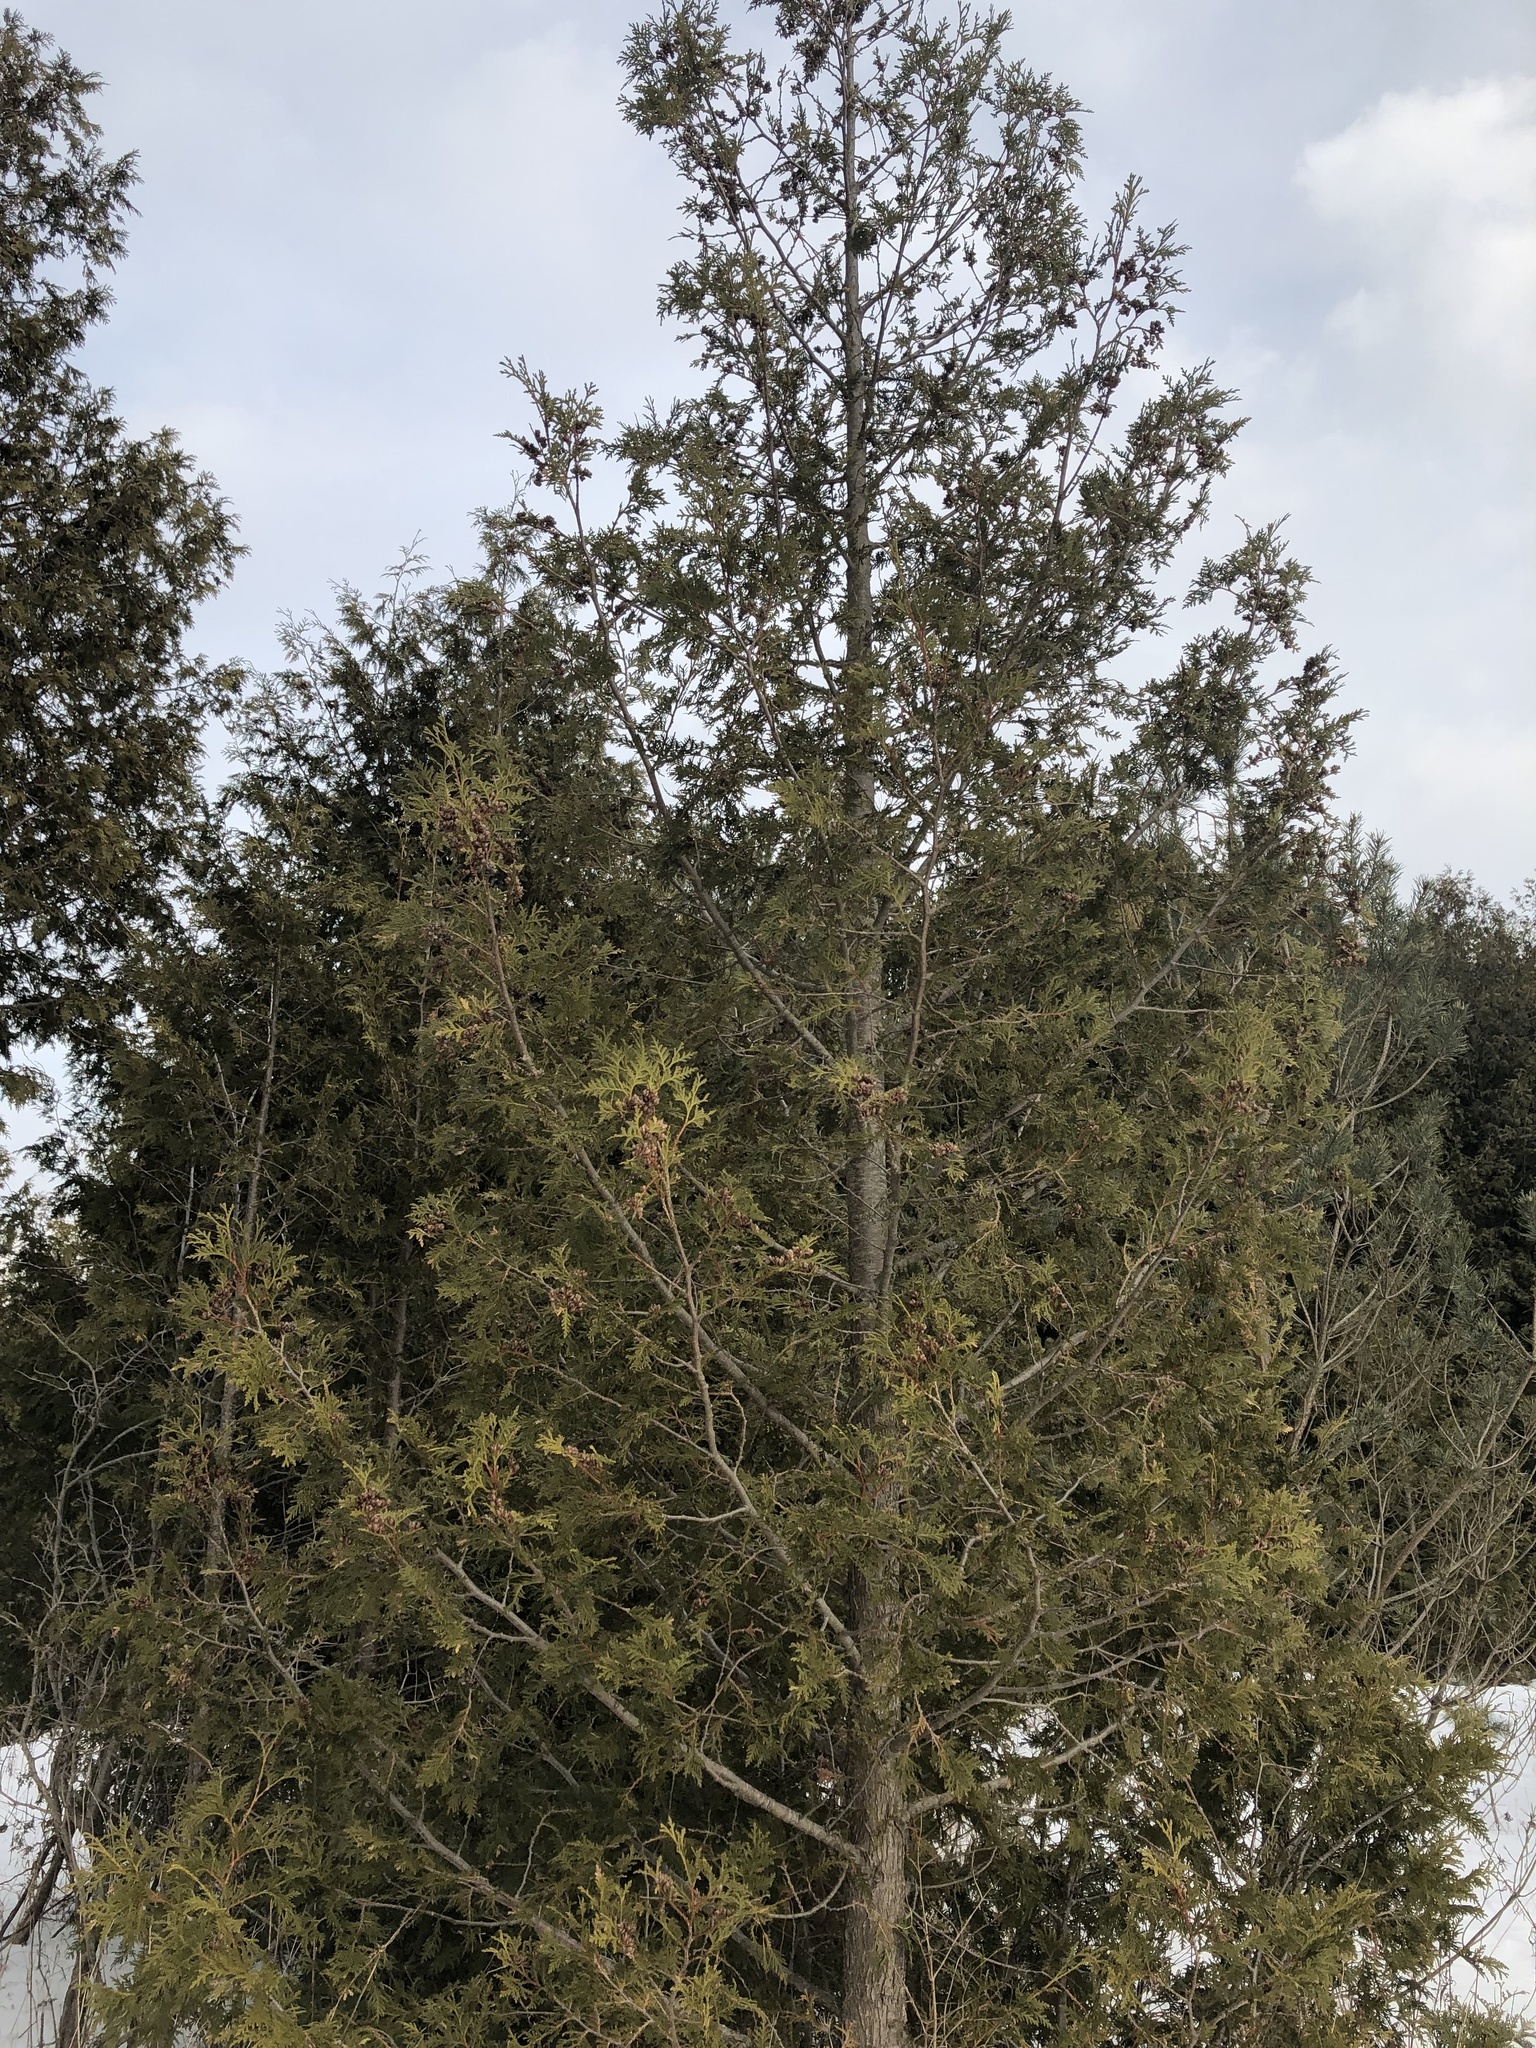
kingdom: Plantae
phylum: Tracheophyta
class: Pinopsida
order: Pinales
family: Cupressaceae
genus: Thuja
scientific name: Thuja occidentalis
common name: Northern white-cedar
